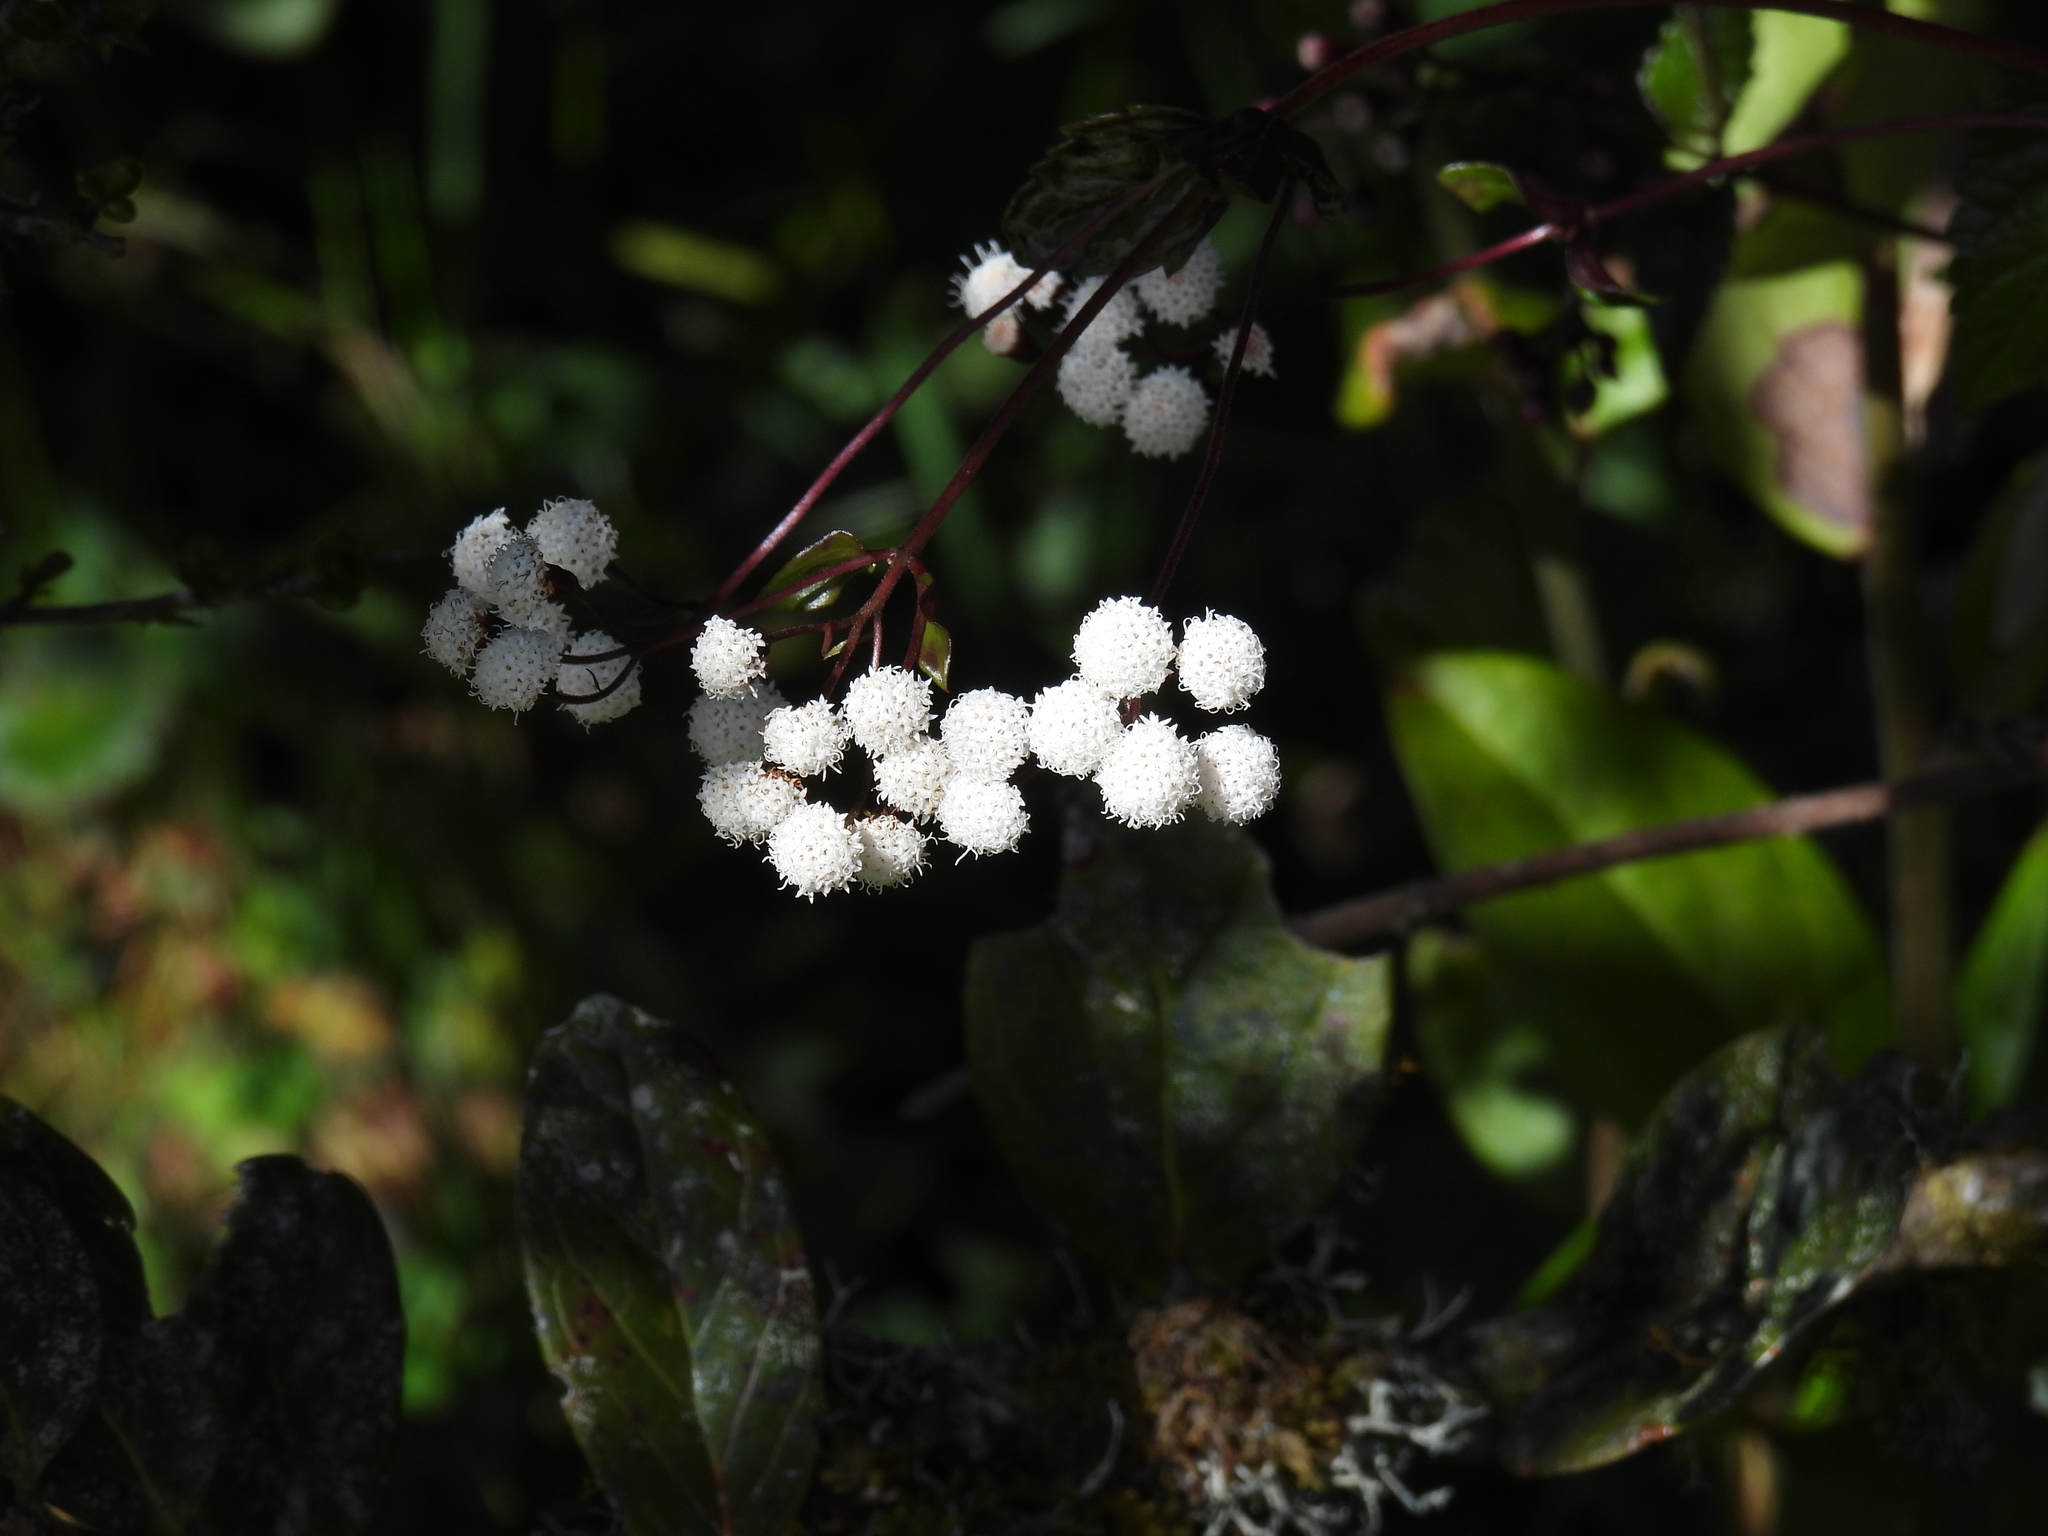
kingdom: Plantae
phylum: Tracheophyta
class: Magnoliopsida
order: Asterales
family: Asteraceae
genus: Ageratina
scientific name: Ageratina gracilis
